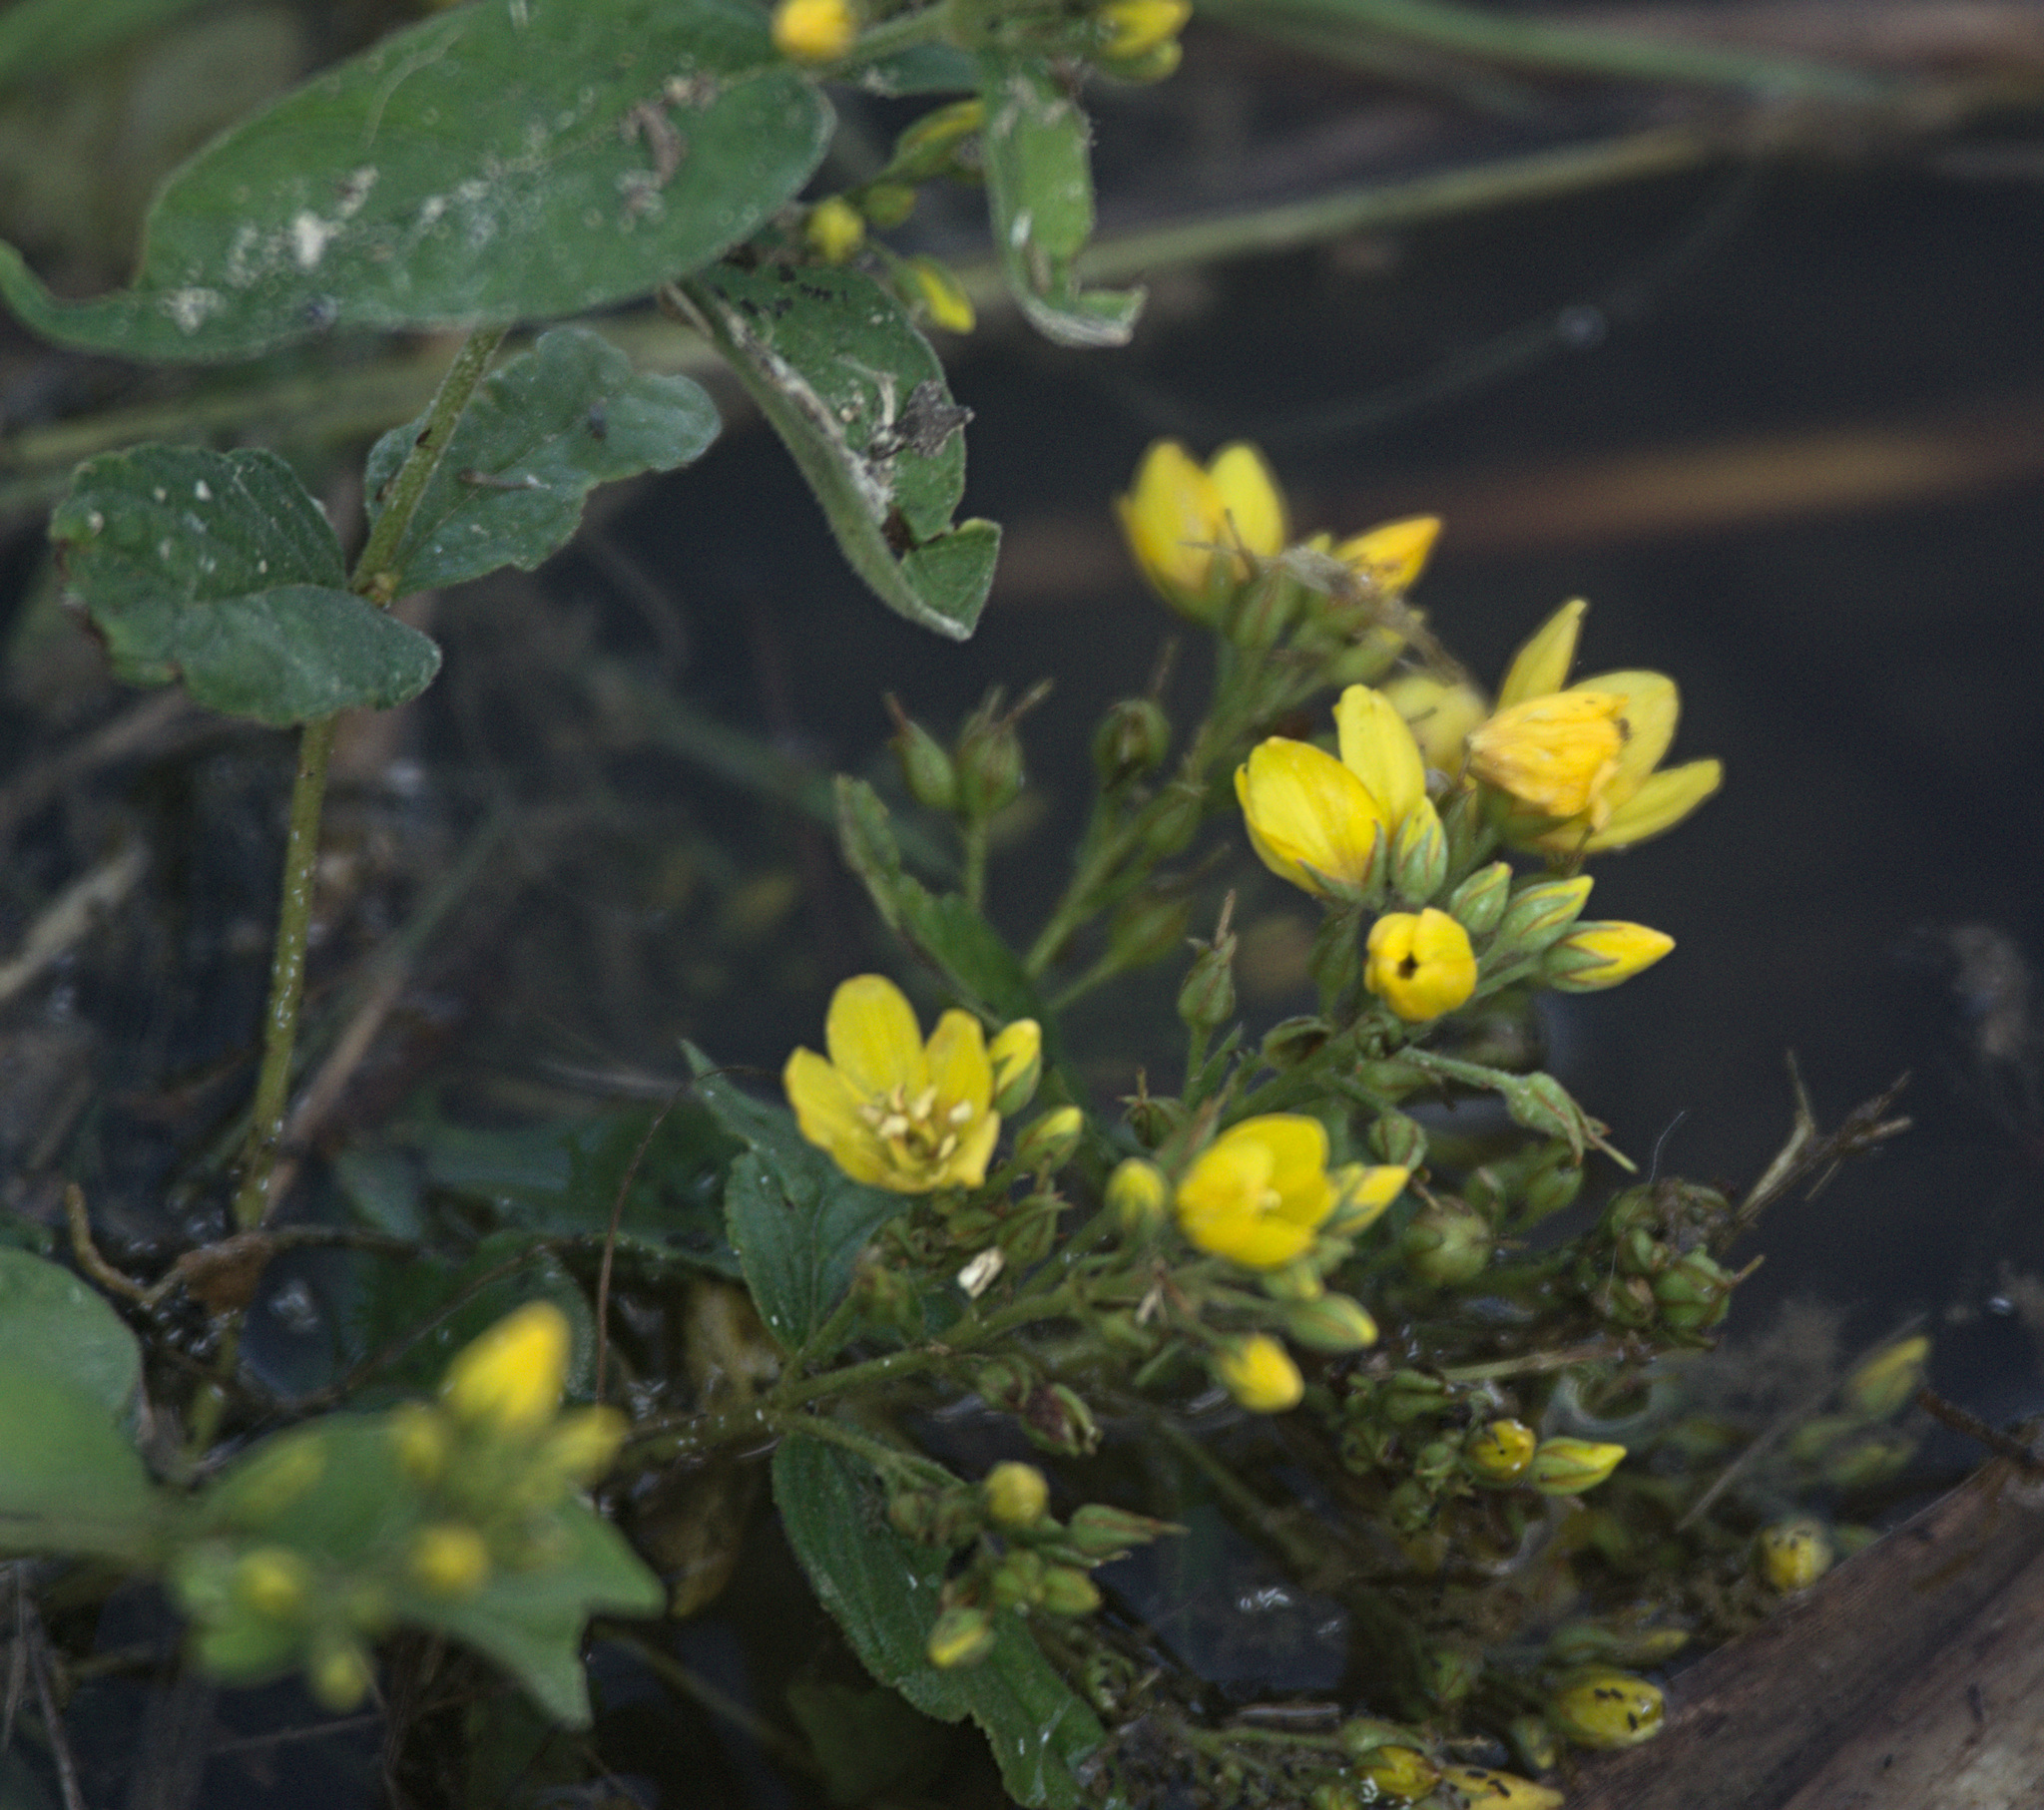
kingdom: Plantae
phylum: Tracheophyta
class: Magnoliopsida
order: Ericales
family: Primulaceae
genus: Lysimachia
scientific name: Lysimachia vulgaris
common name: Yellow loosestrife
